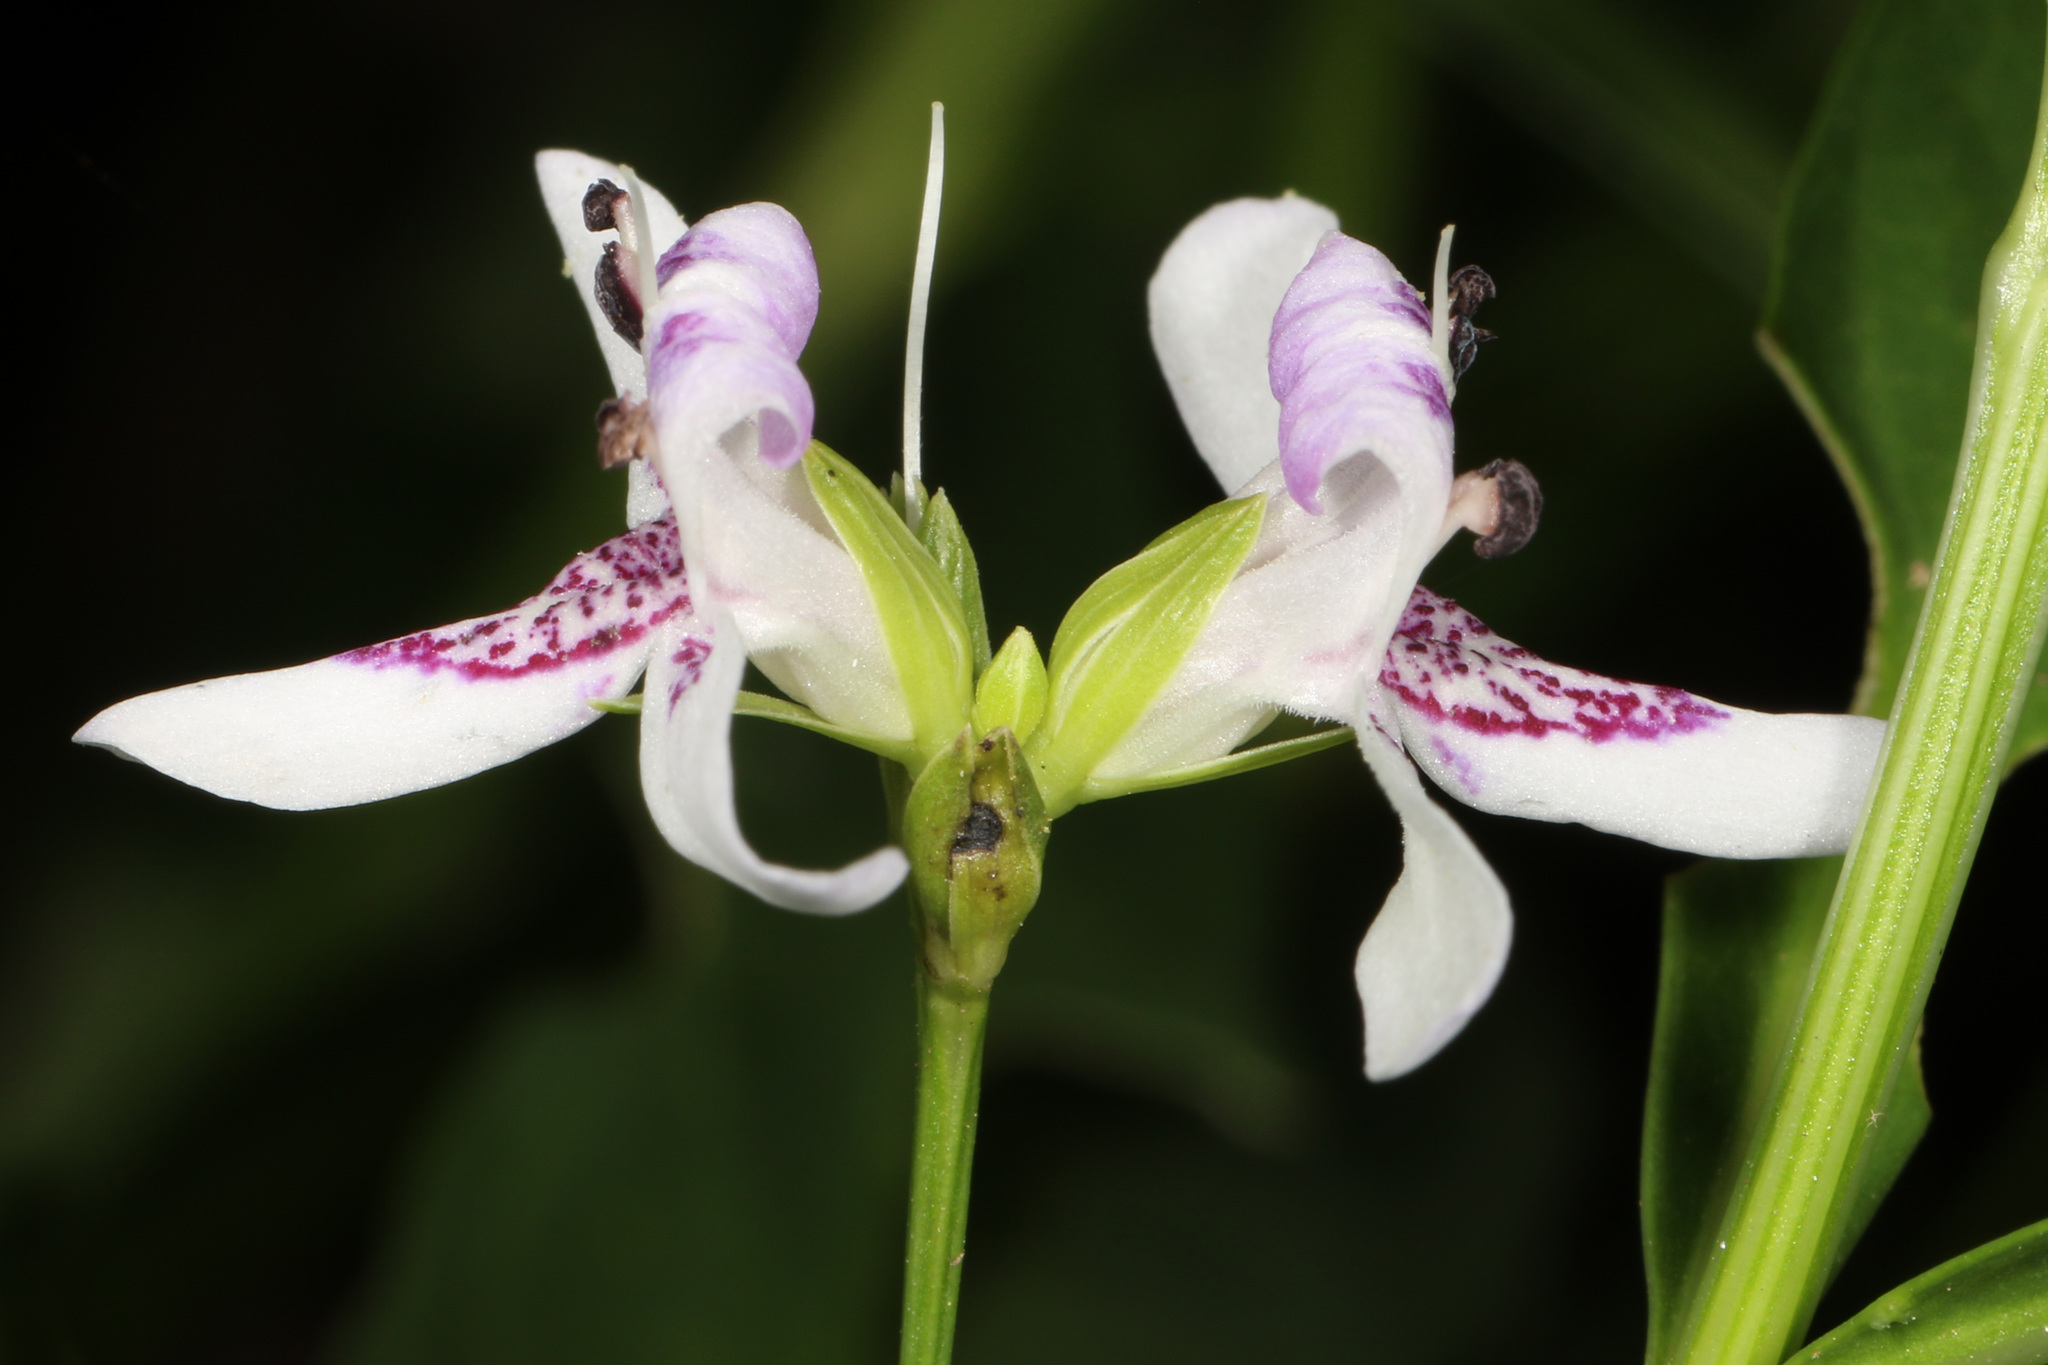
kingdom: Plantae
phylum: Tracheophyta
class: Magnoliopsida
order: Lamiales
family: Acanthaceae
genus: Dianthera
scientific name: Dianthera americana
